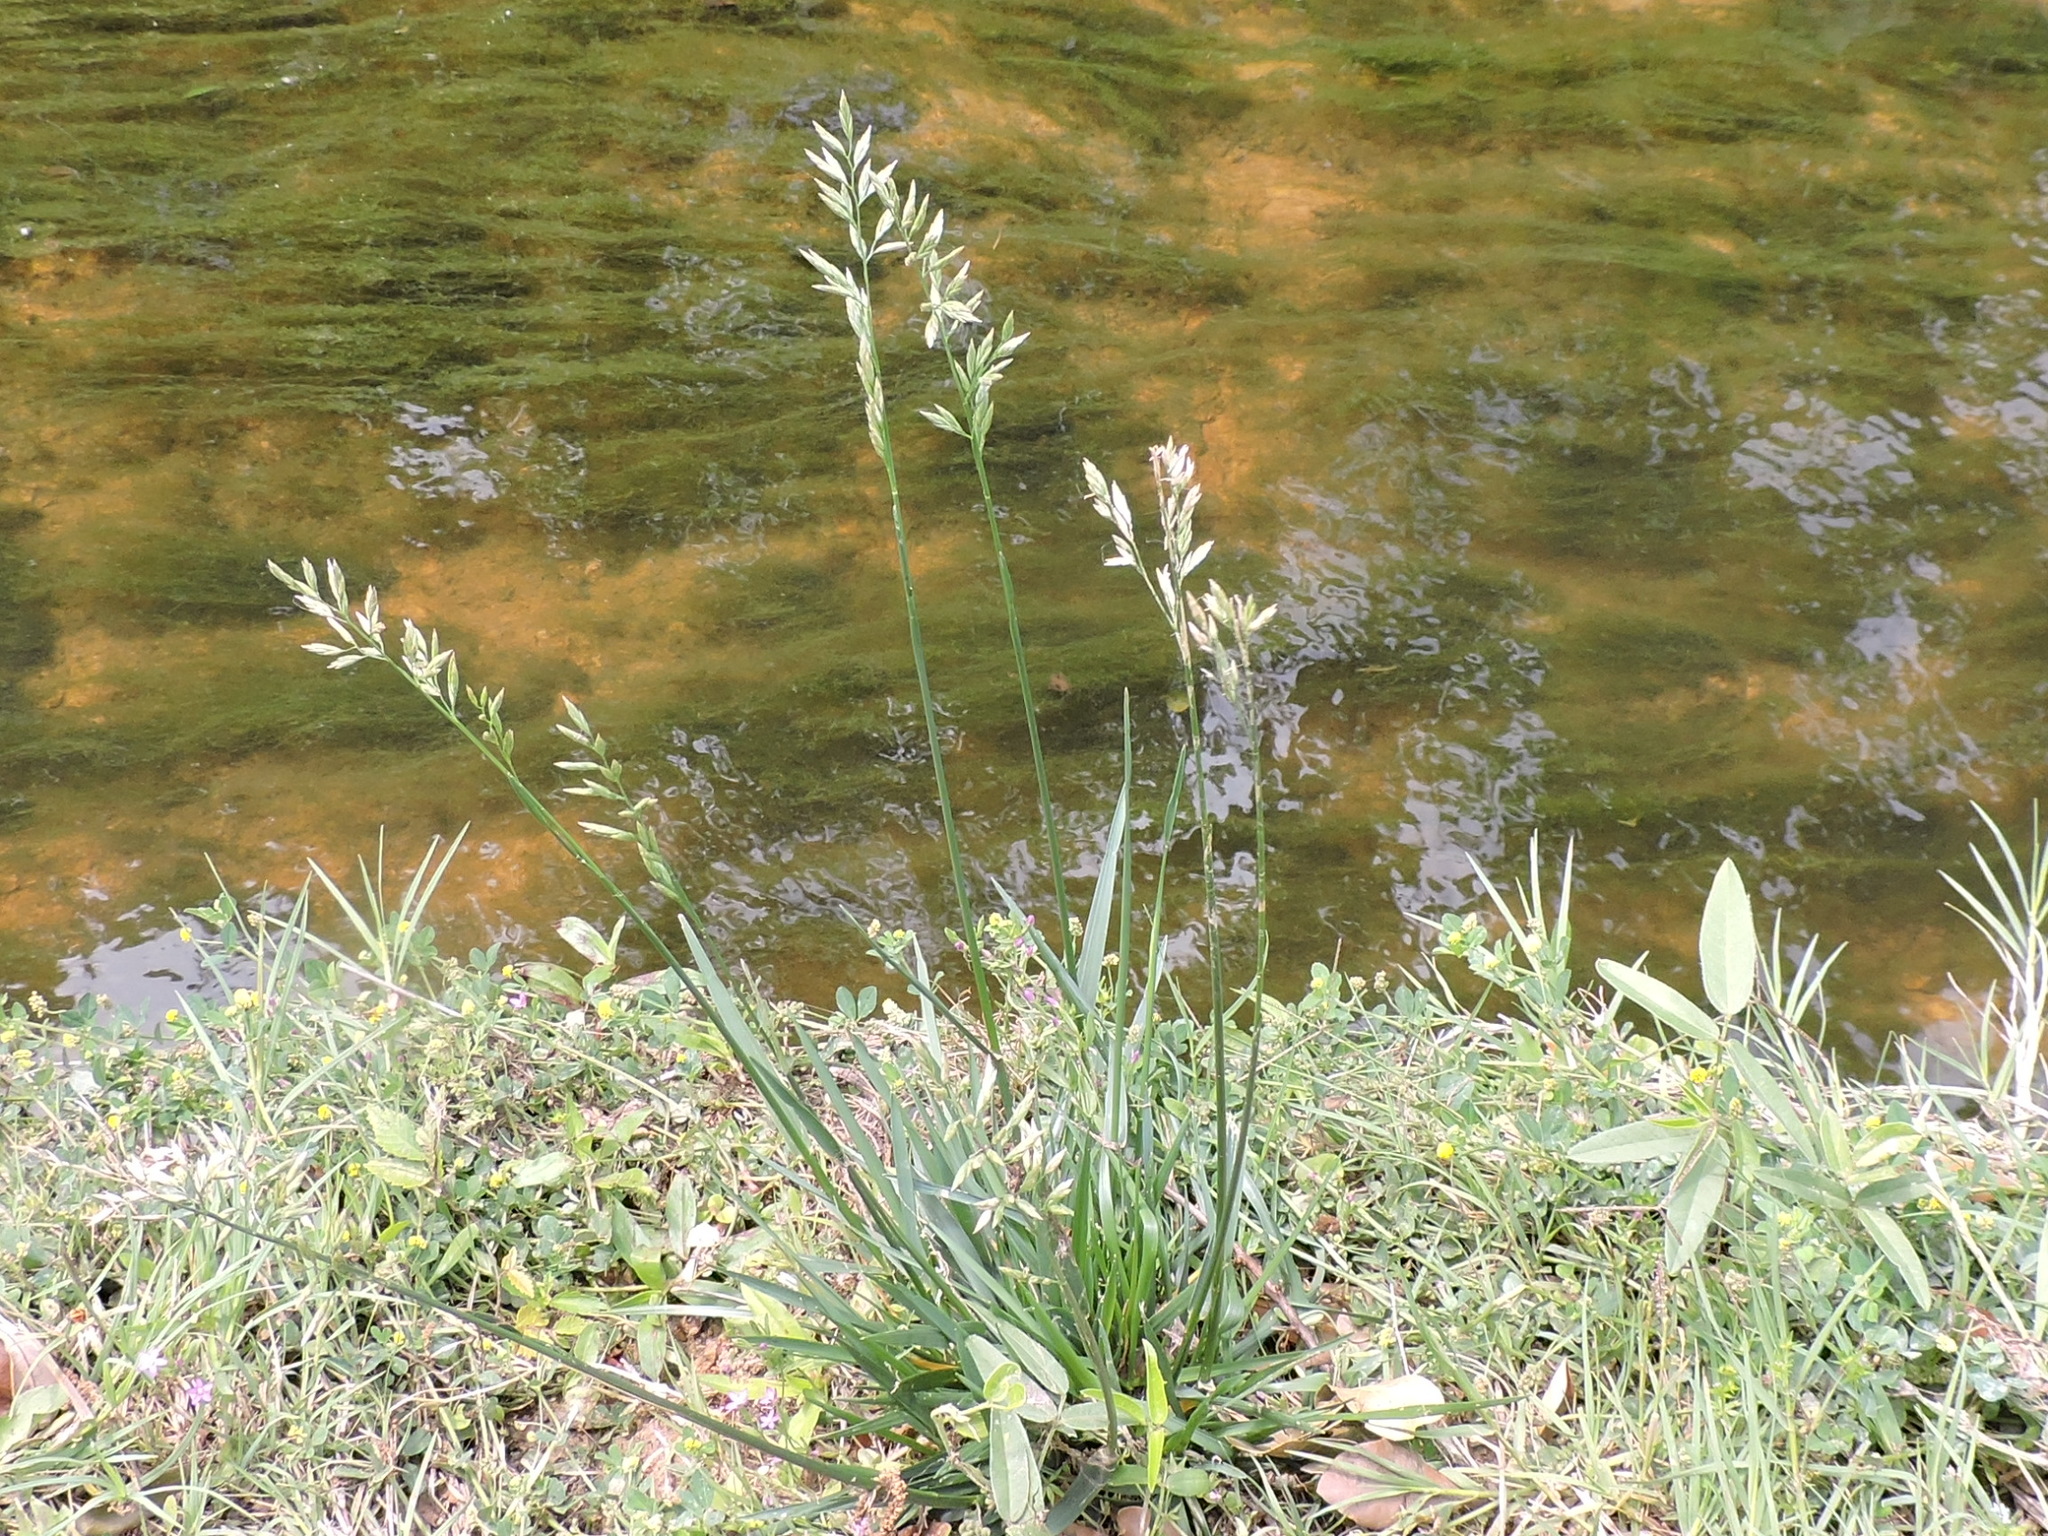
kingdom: Plantae
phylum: Tracheophyta
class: Liliopsida
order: Poales
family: Poaceae
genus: Lolium
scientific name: Lolium arundinaceum
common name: Reed fescue
